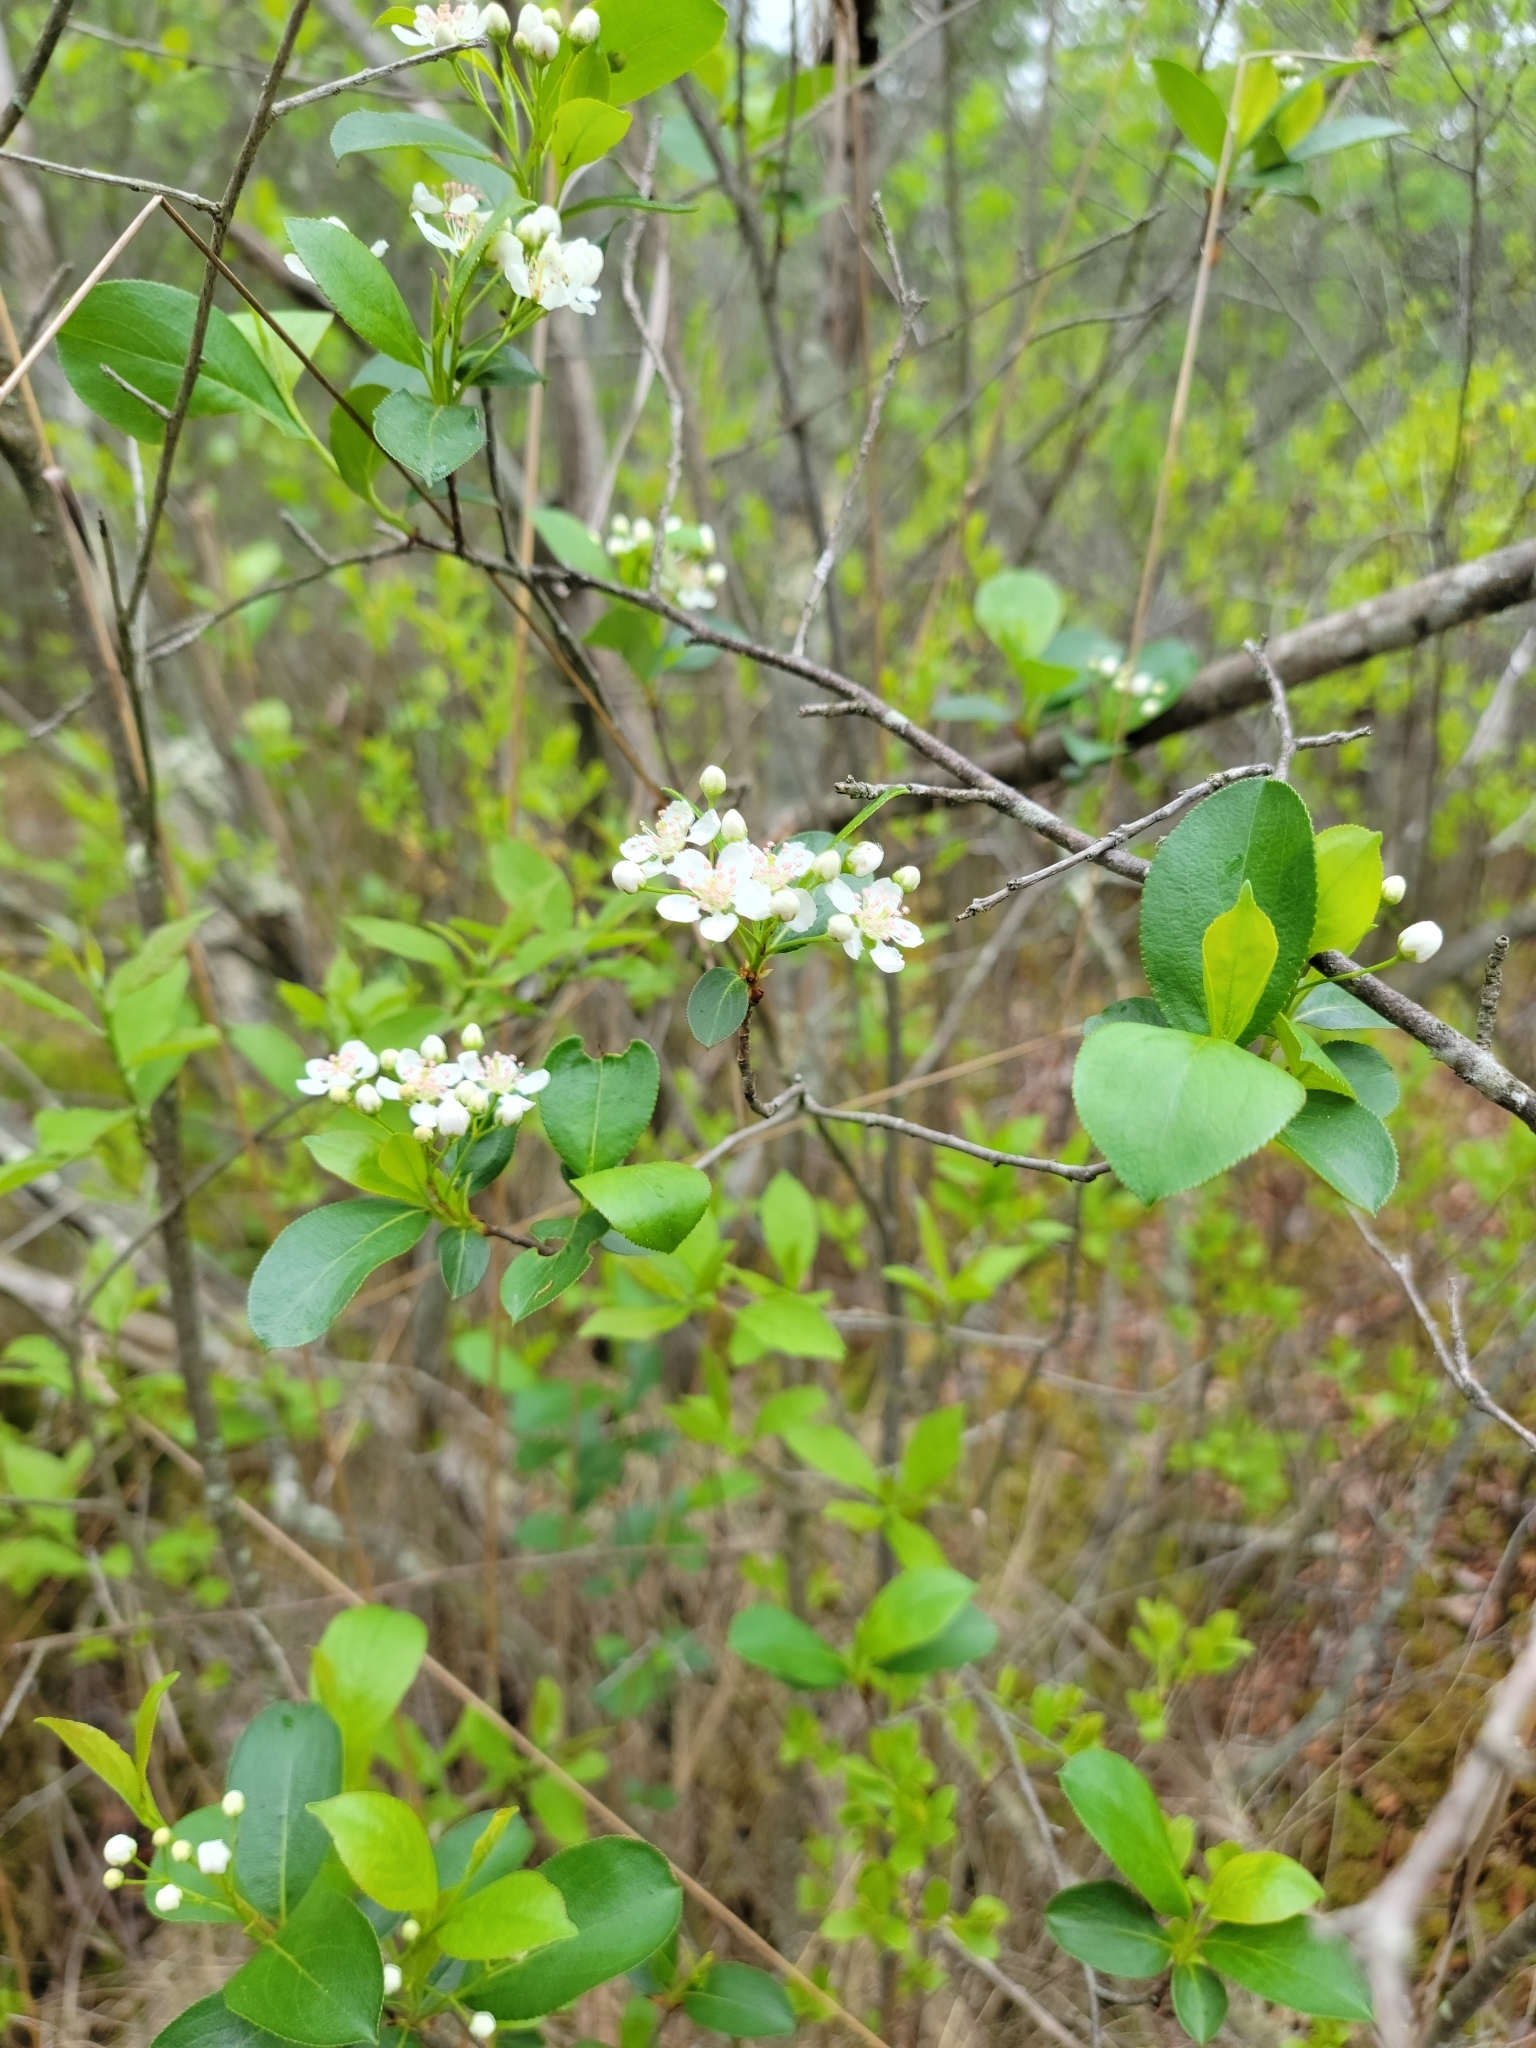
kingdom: Plantae
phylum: Tracheophyta
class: Magnoliopsida
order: Rosales
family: Rosaceae
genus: Aronia
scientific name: Aronia melanocarpa
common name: Black chokeberry
